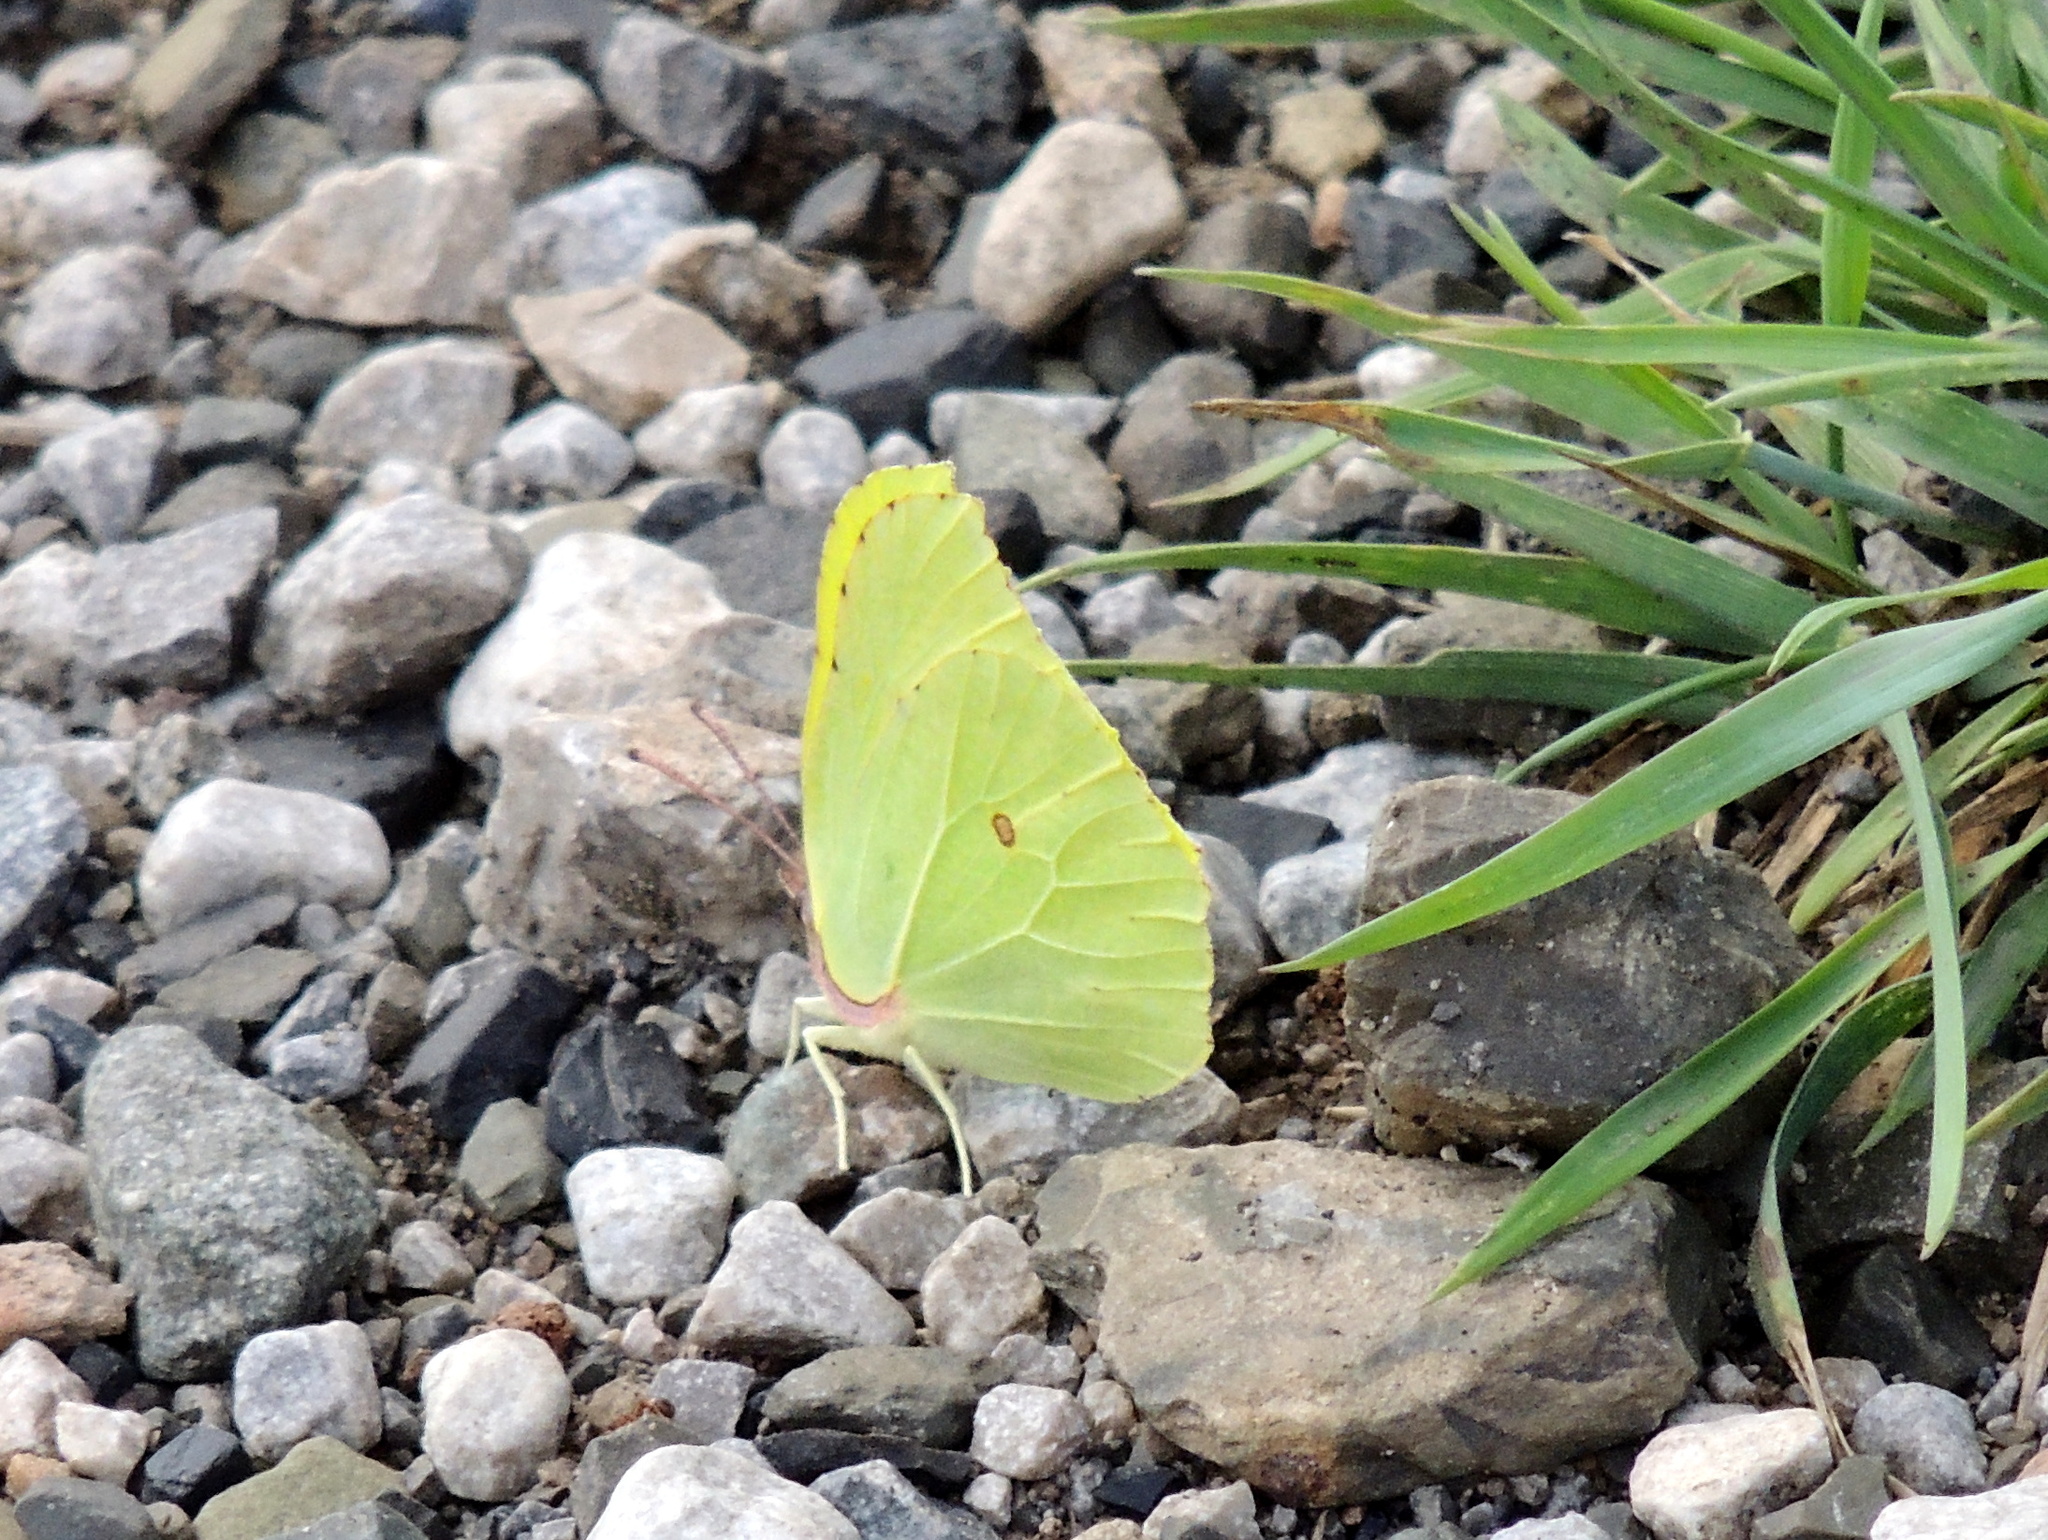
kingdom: Animalia
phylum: Arthropoda
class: Insecta
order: Lepidoptera
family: Pieridae
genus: Gonepteryx
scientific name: Gonepteryx rhamni
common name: Brimstone
